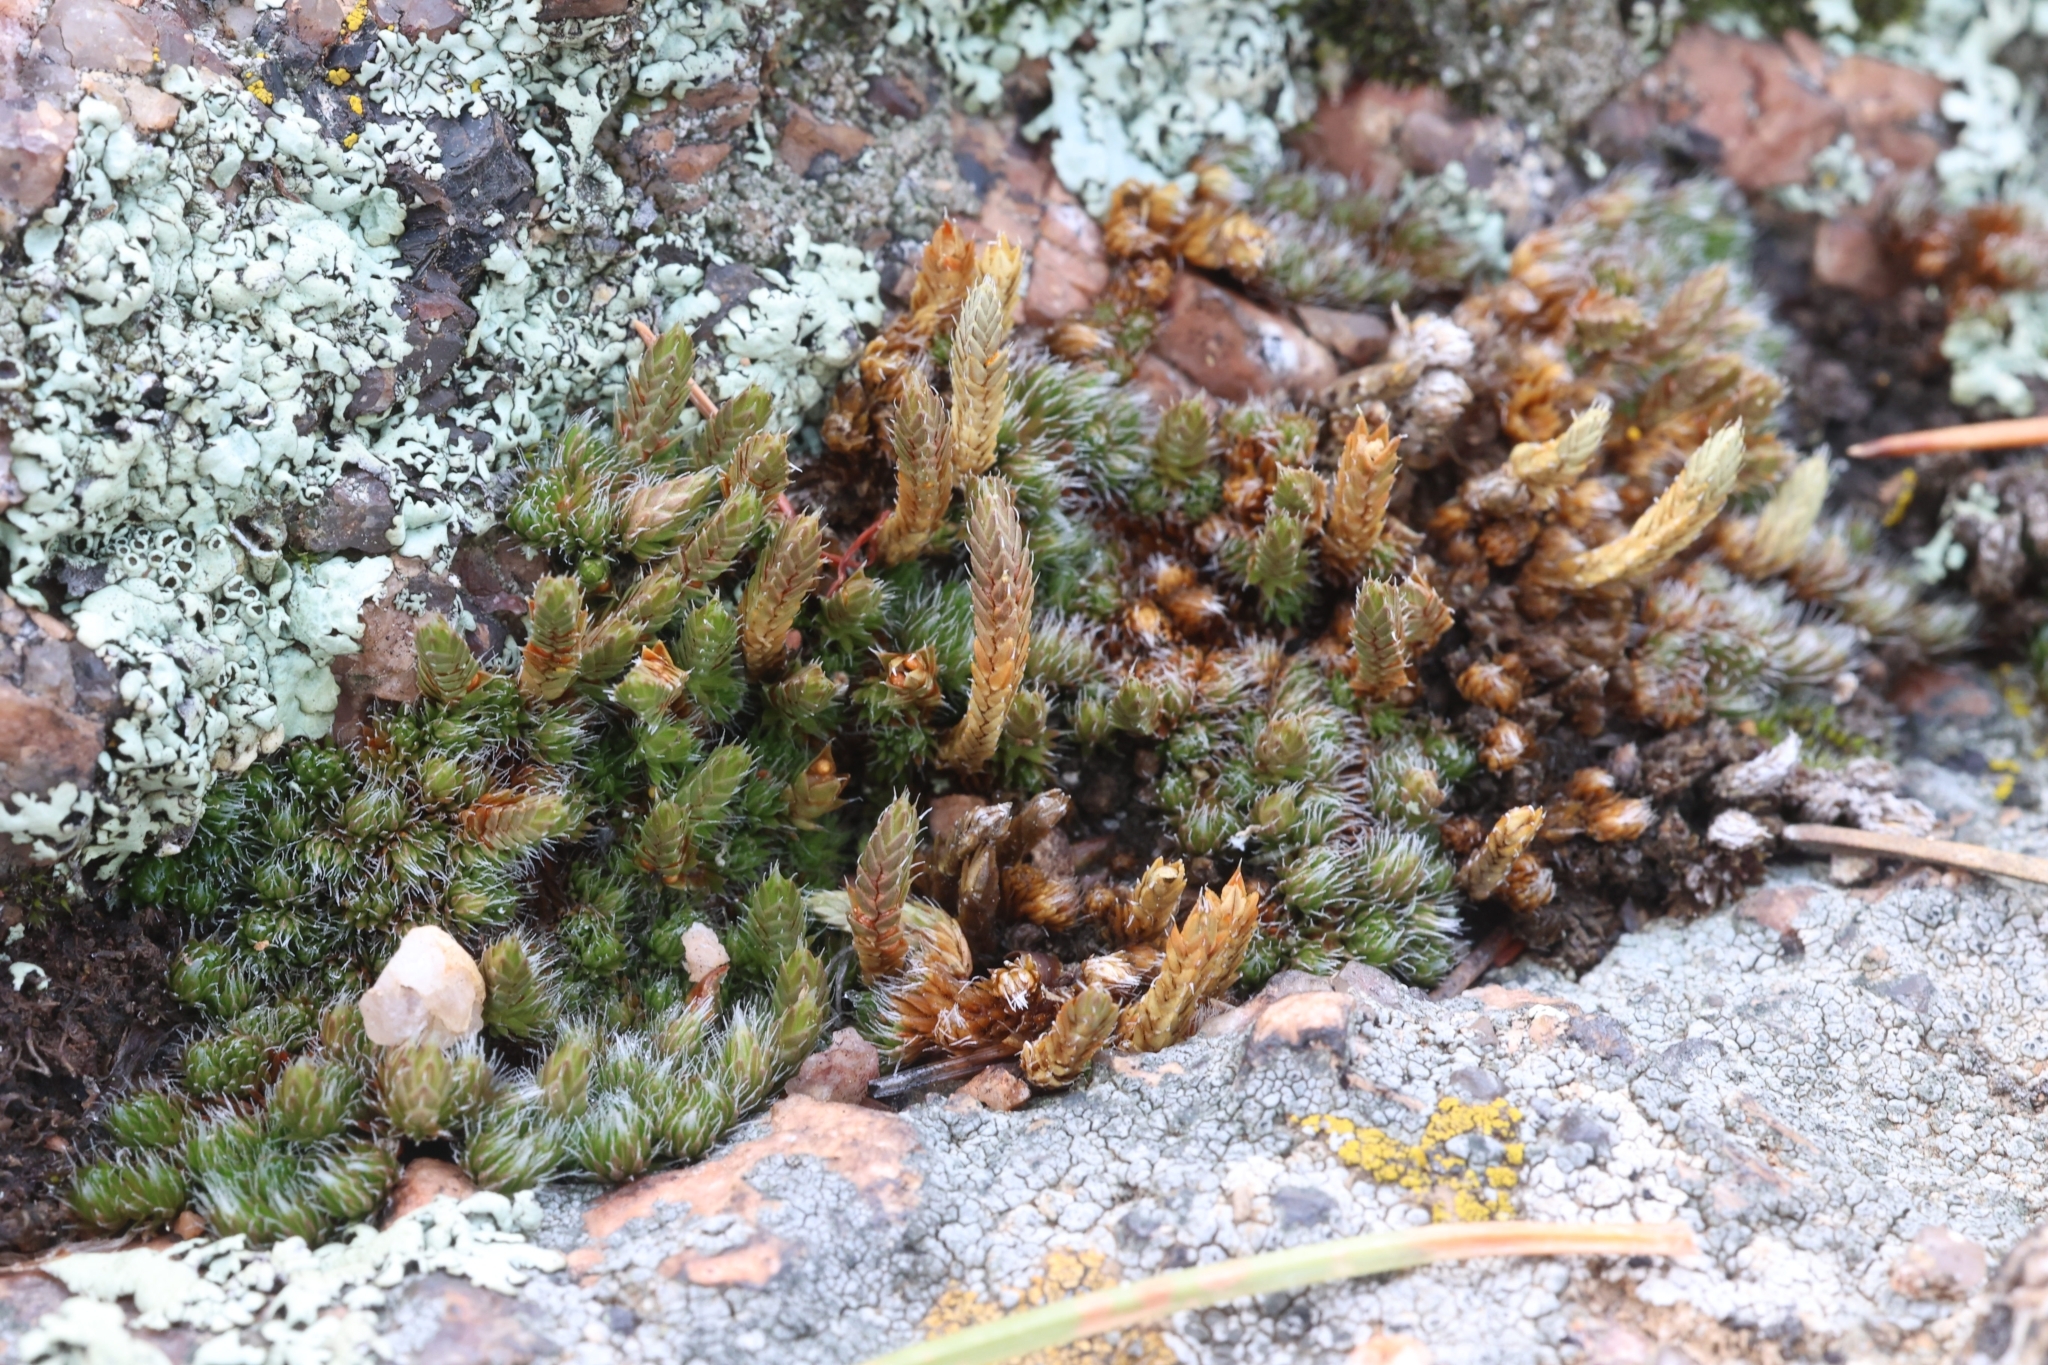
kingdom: Plantae
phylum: Tracheophyta
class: Lycopodiopsida
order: Selaginellales
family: Selaginellaceae
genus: Selaginella
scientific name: Selaginella densa
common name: Mountain spike-moss
